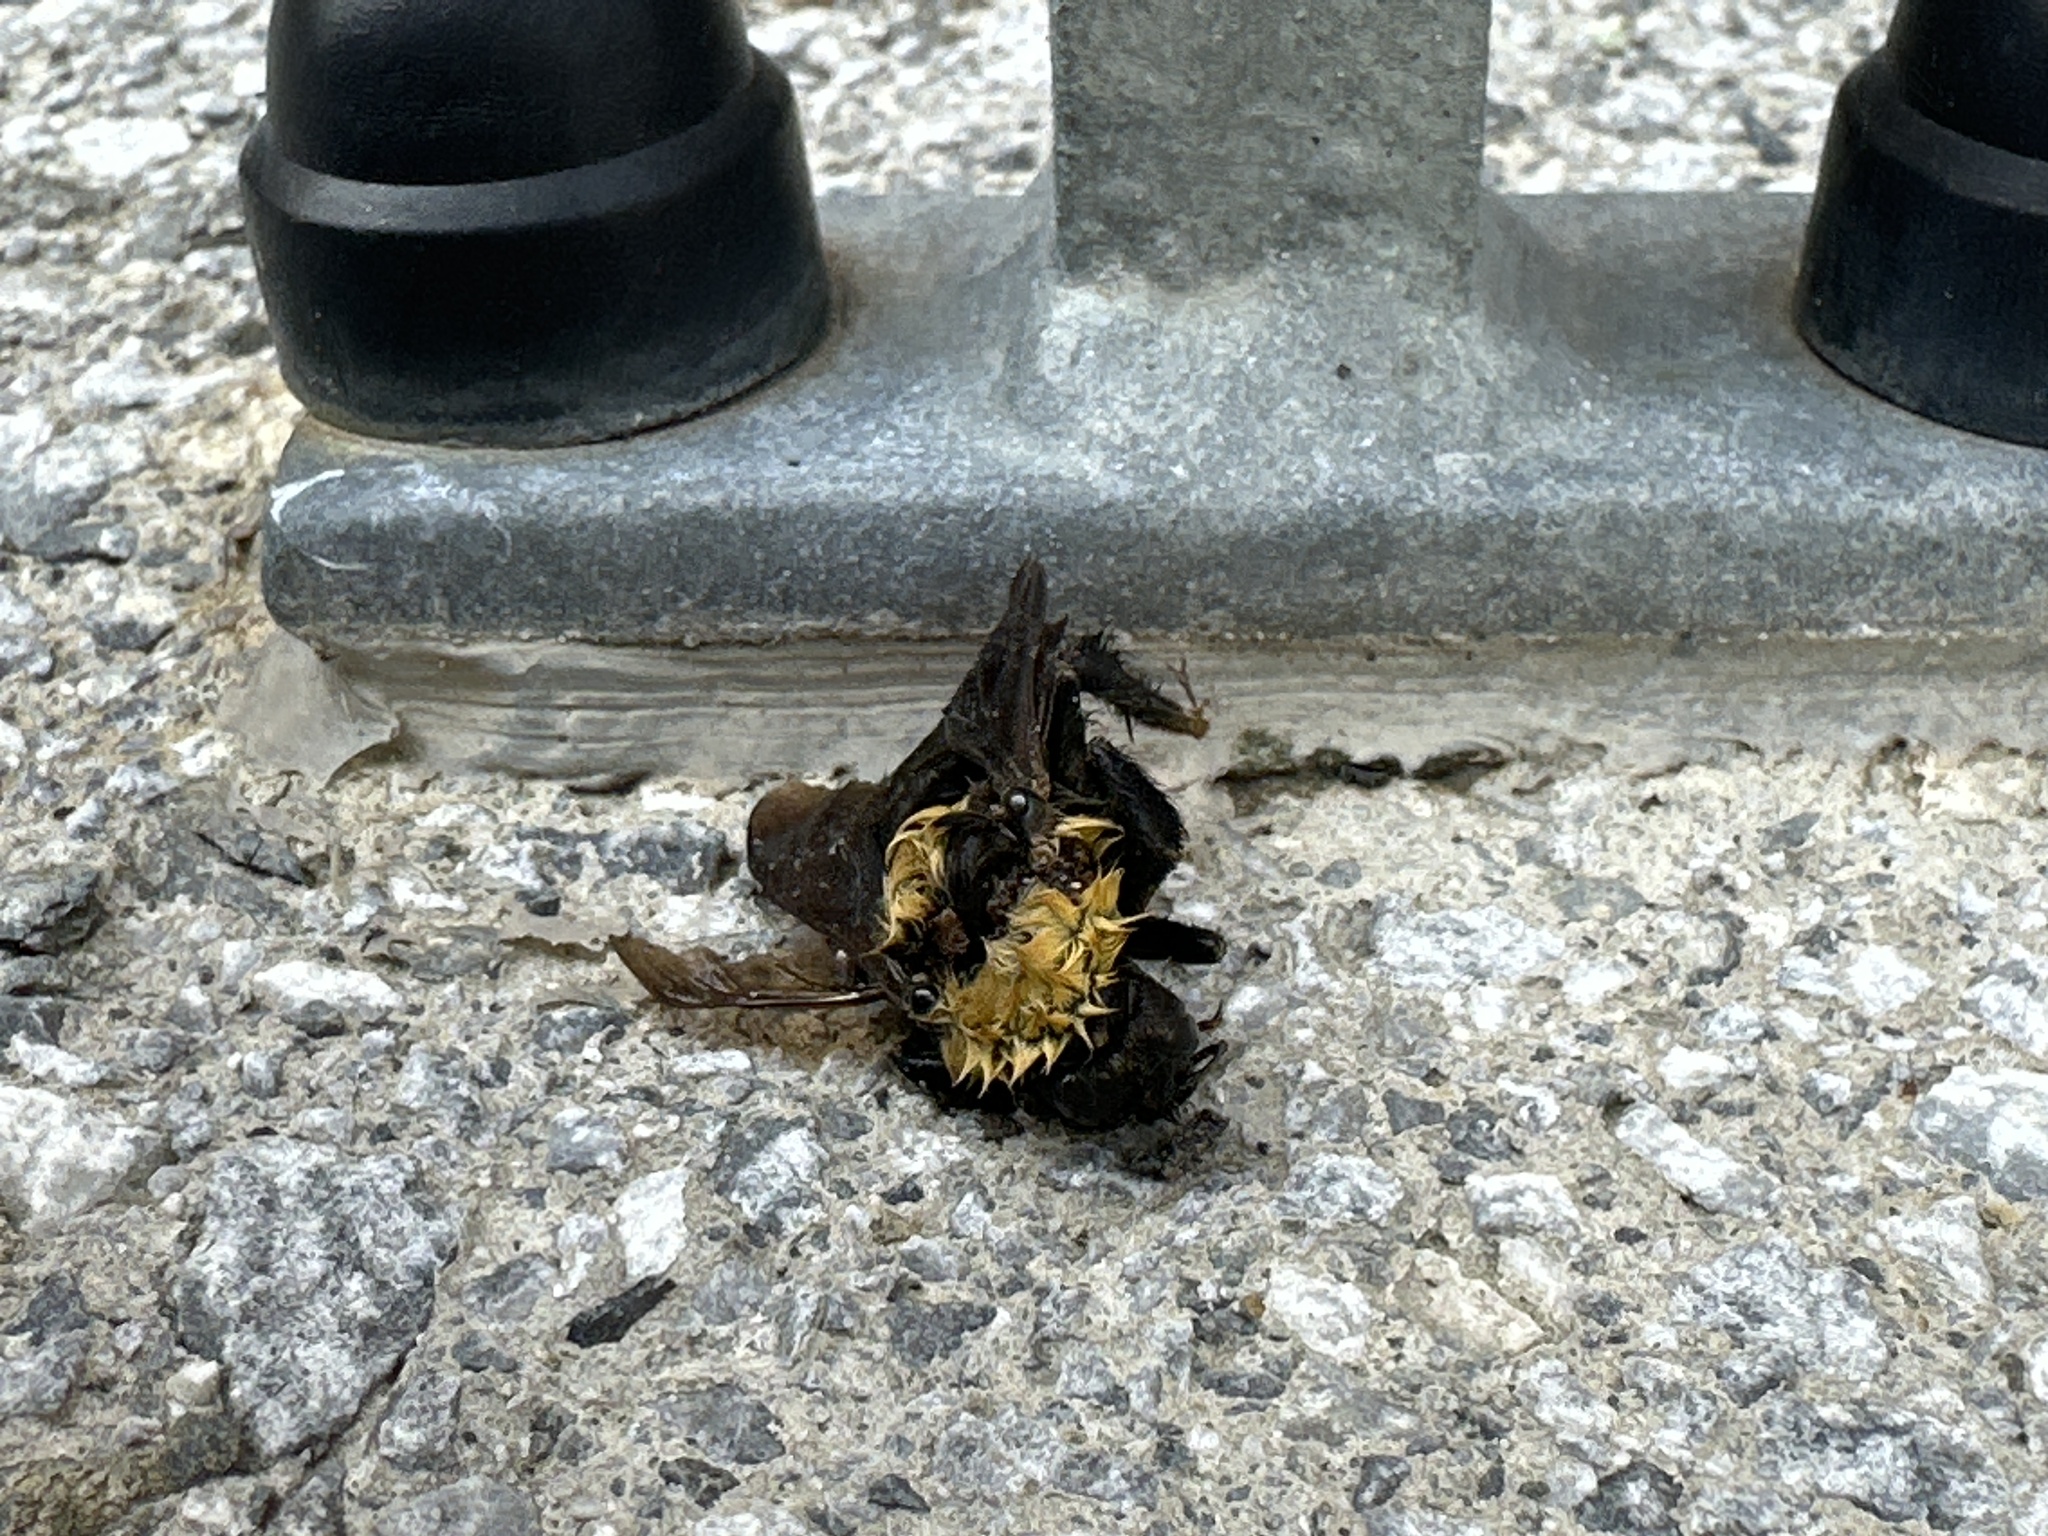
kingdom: Animalia
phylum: Arthropoda
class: Insecta
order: Hymenoptera
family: Apidae
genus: Bombus
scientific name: Bombus argillaceus
